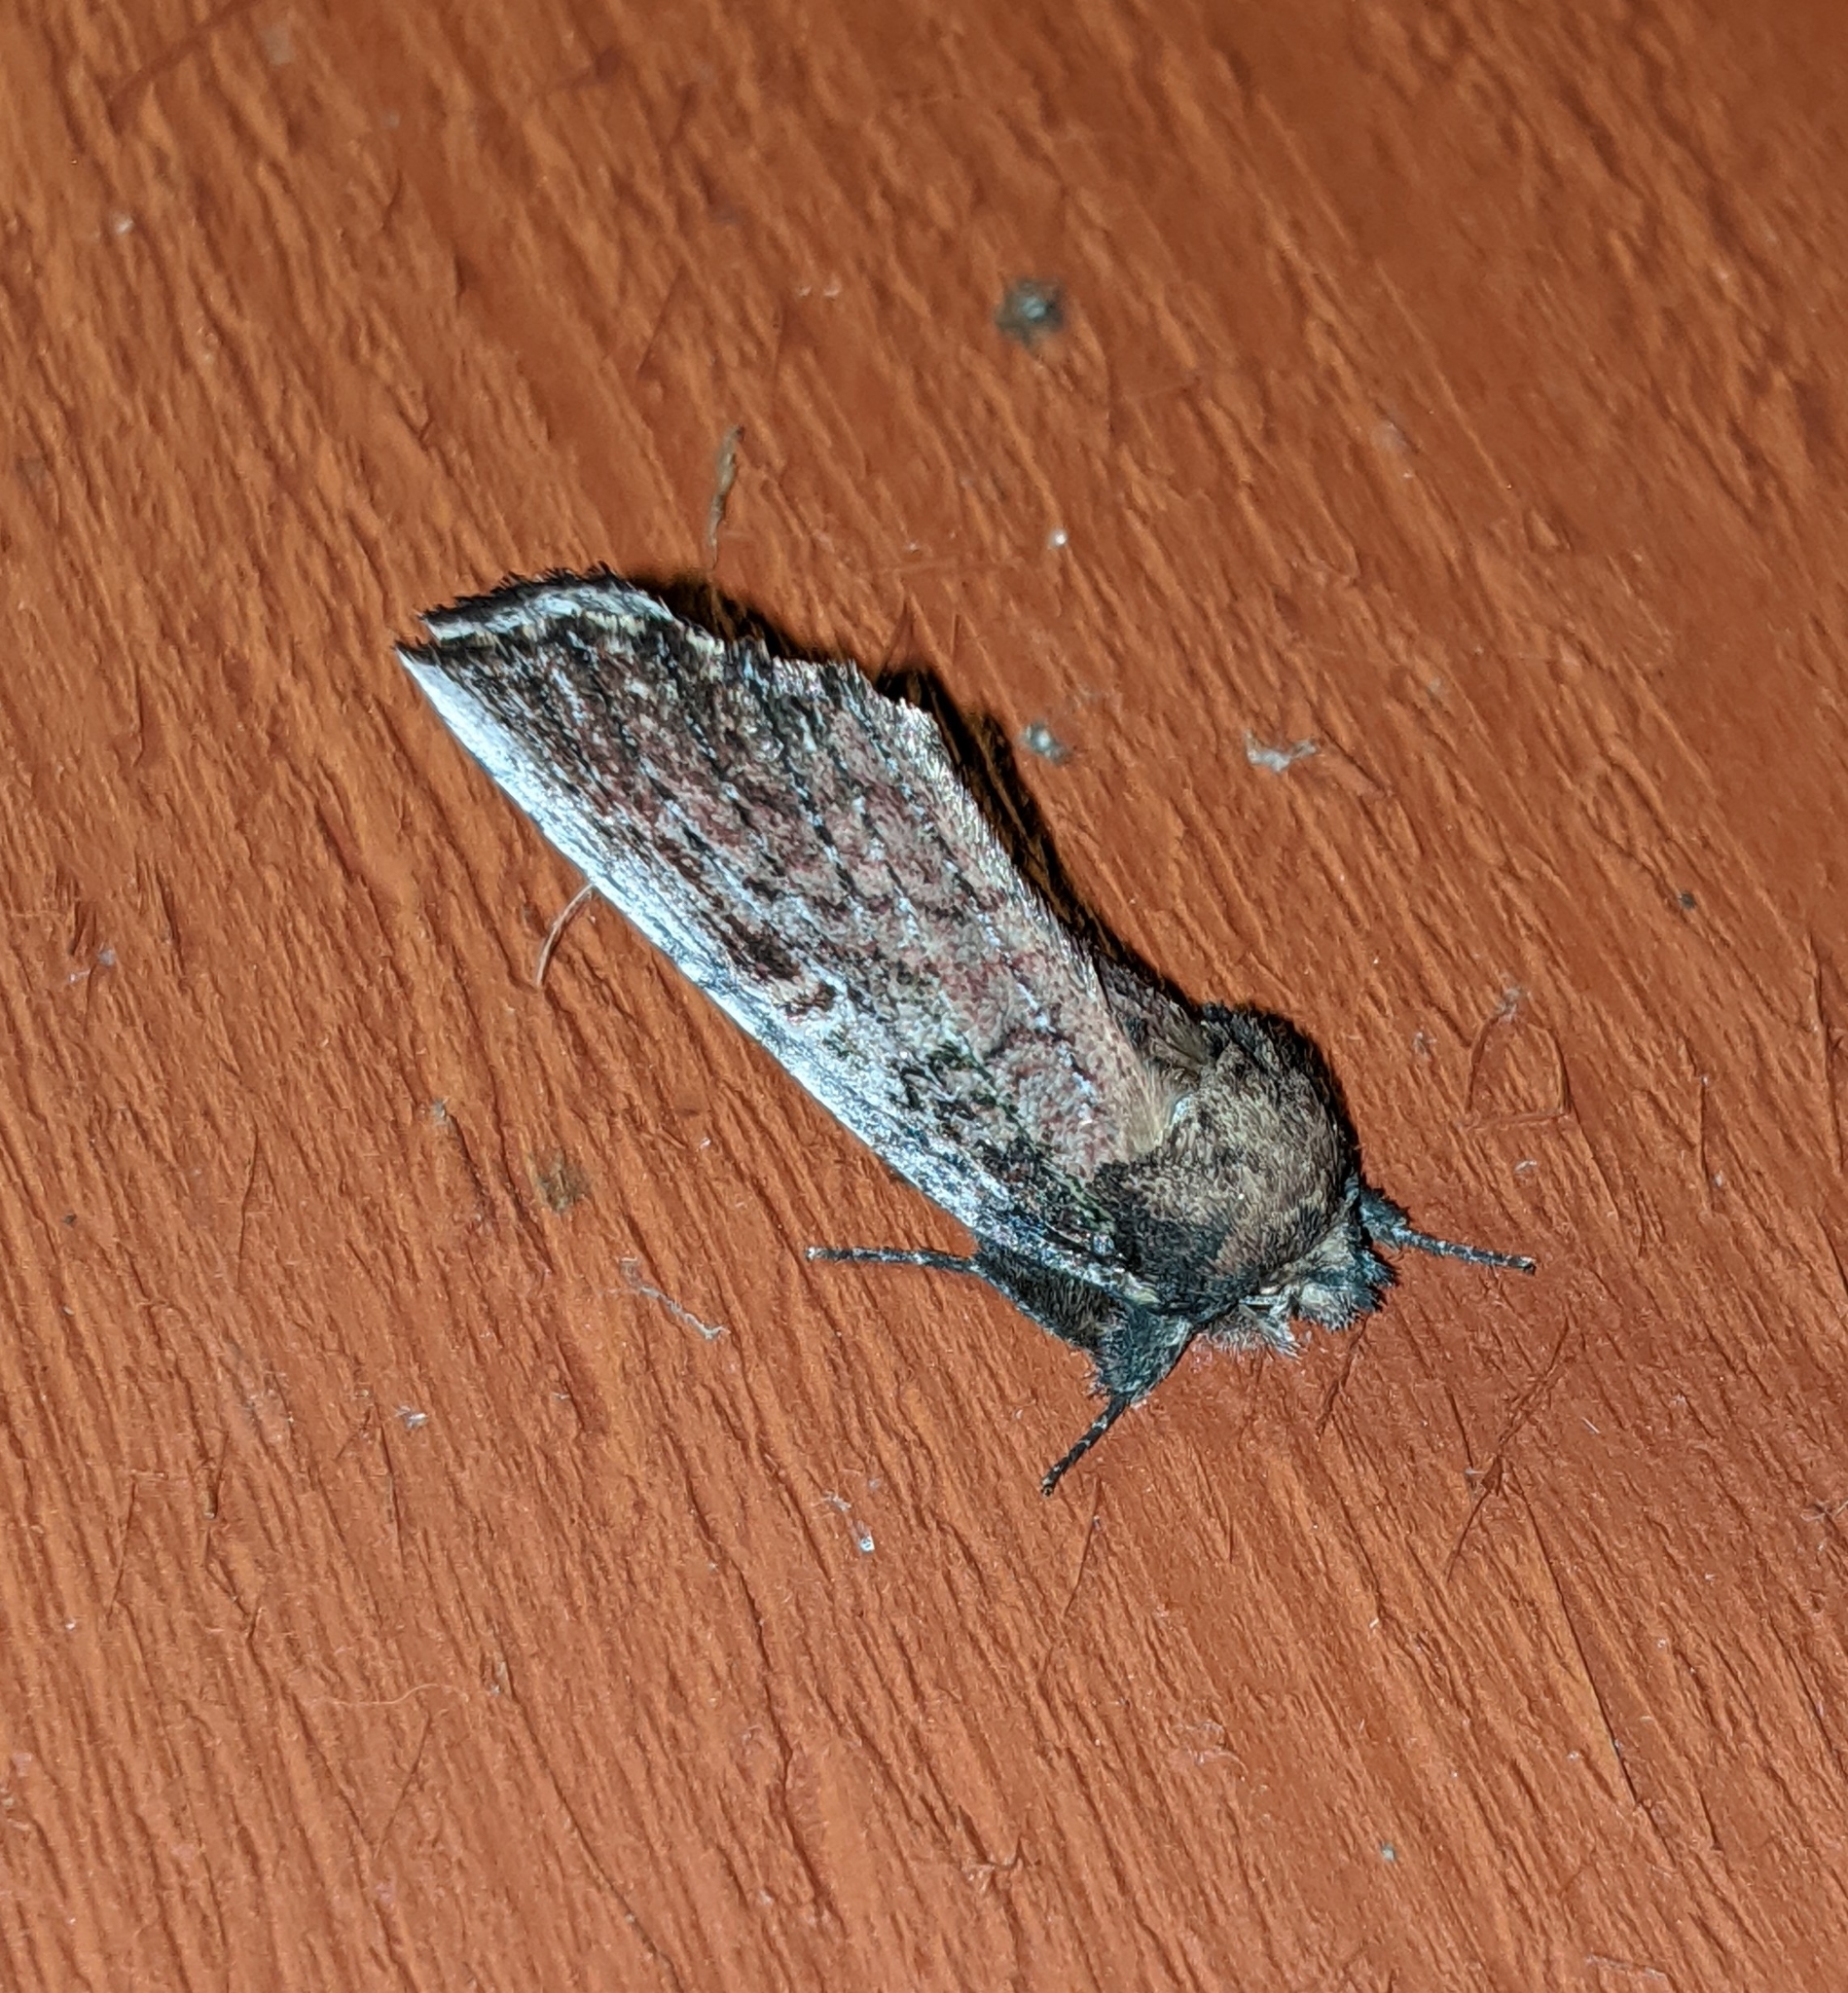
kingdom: Animalia
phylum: Arthropoda
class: Insecta
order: Lepidoptera
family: Notodontidae
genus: Schizura
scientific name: Schizura ipomaeae
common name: Morning-glory prominent
